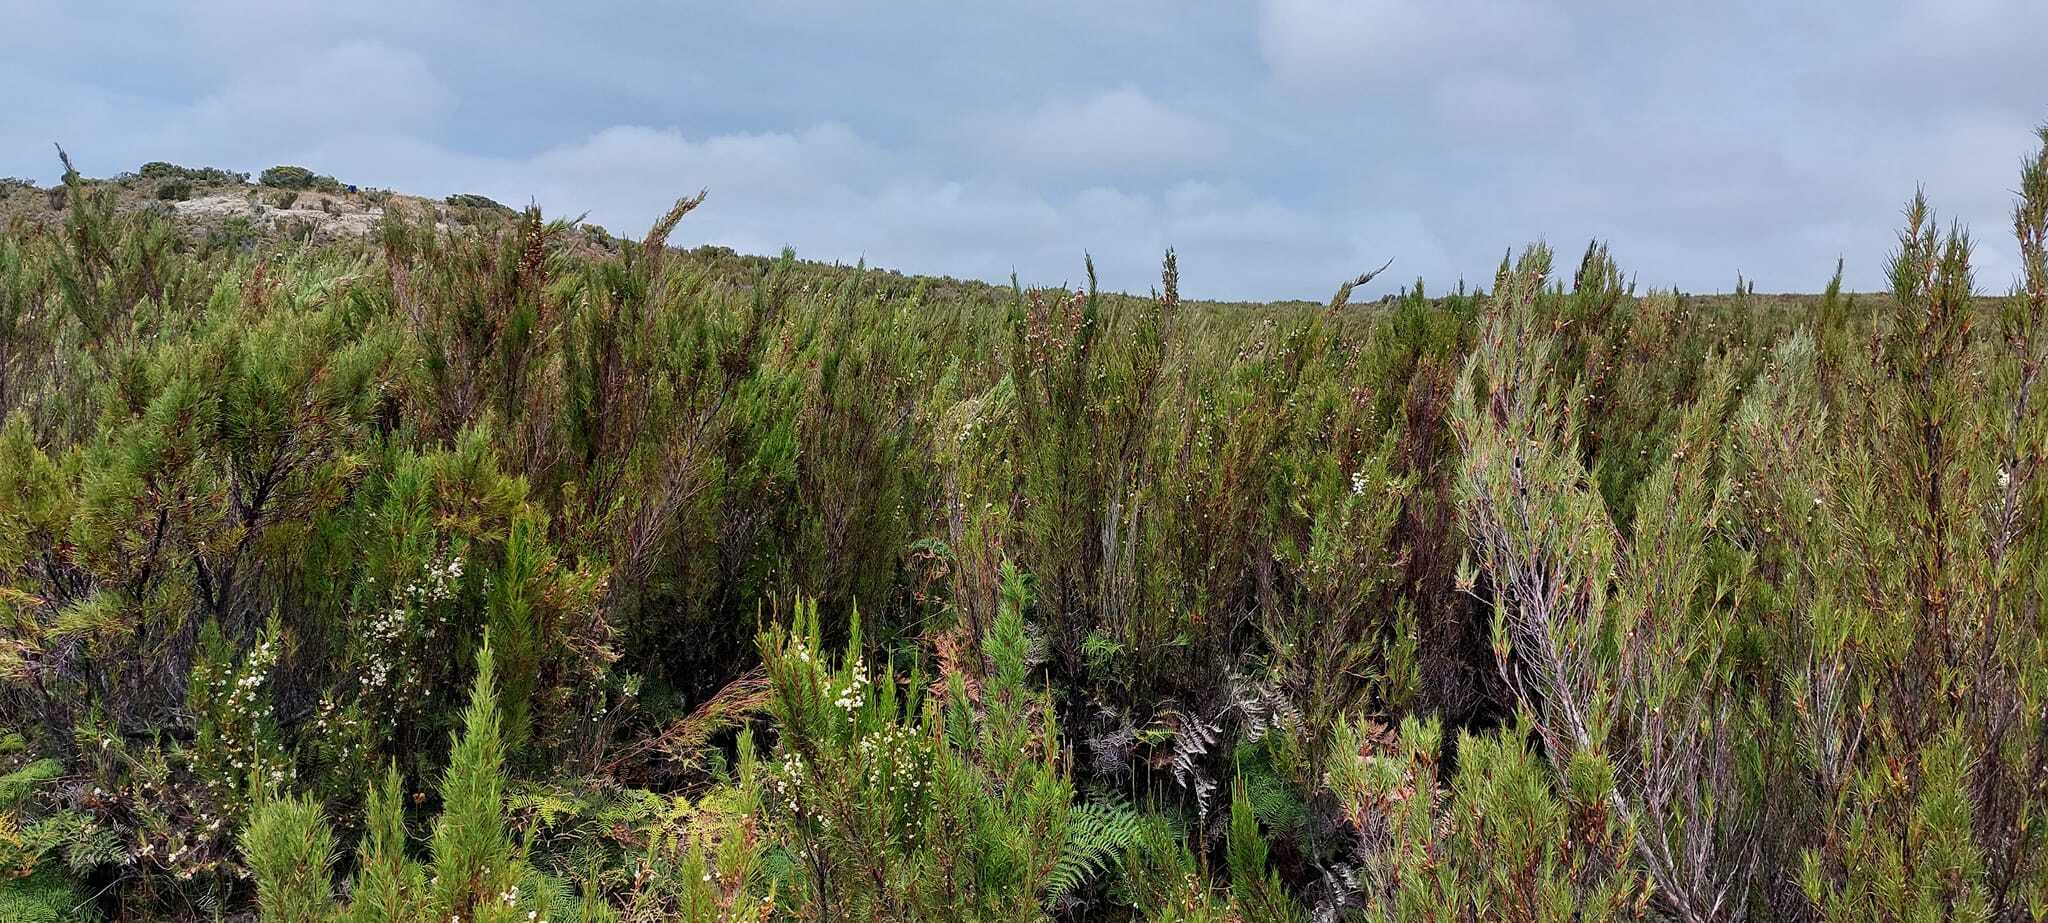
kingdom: Plantae
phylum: Tracheophyta
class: Magnoliopsida
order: Ericales
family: Ericaceae
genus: Dracophyllum
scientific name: Dracophyllum scoparium
